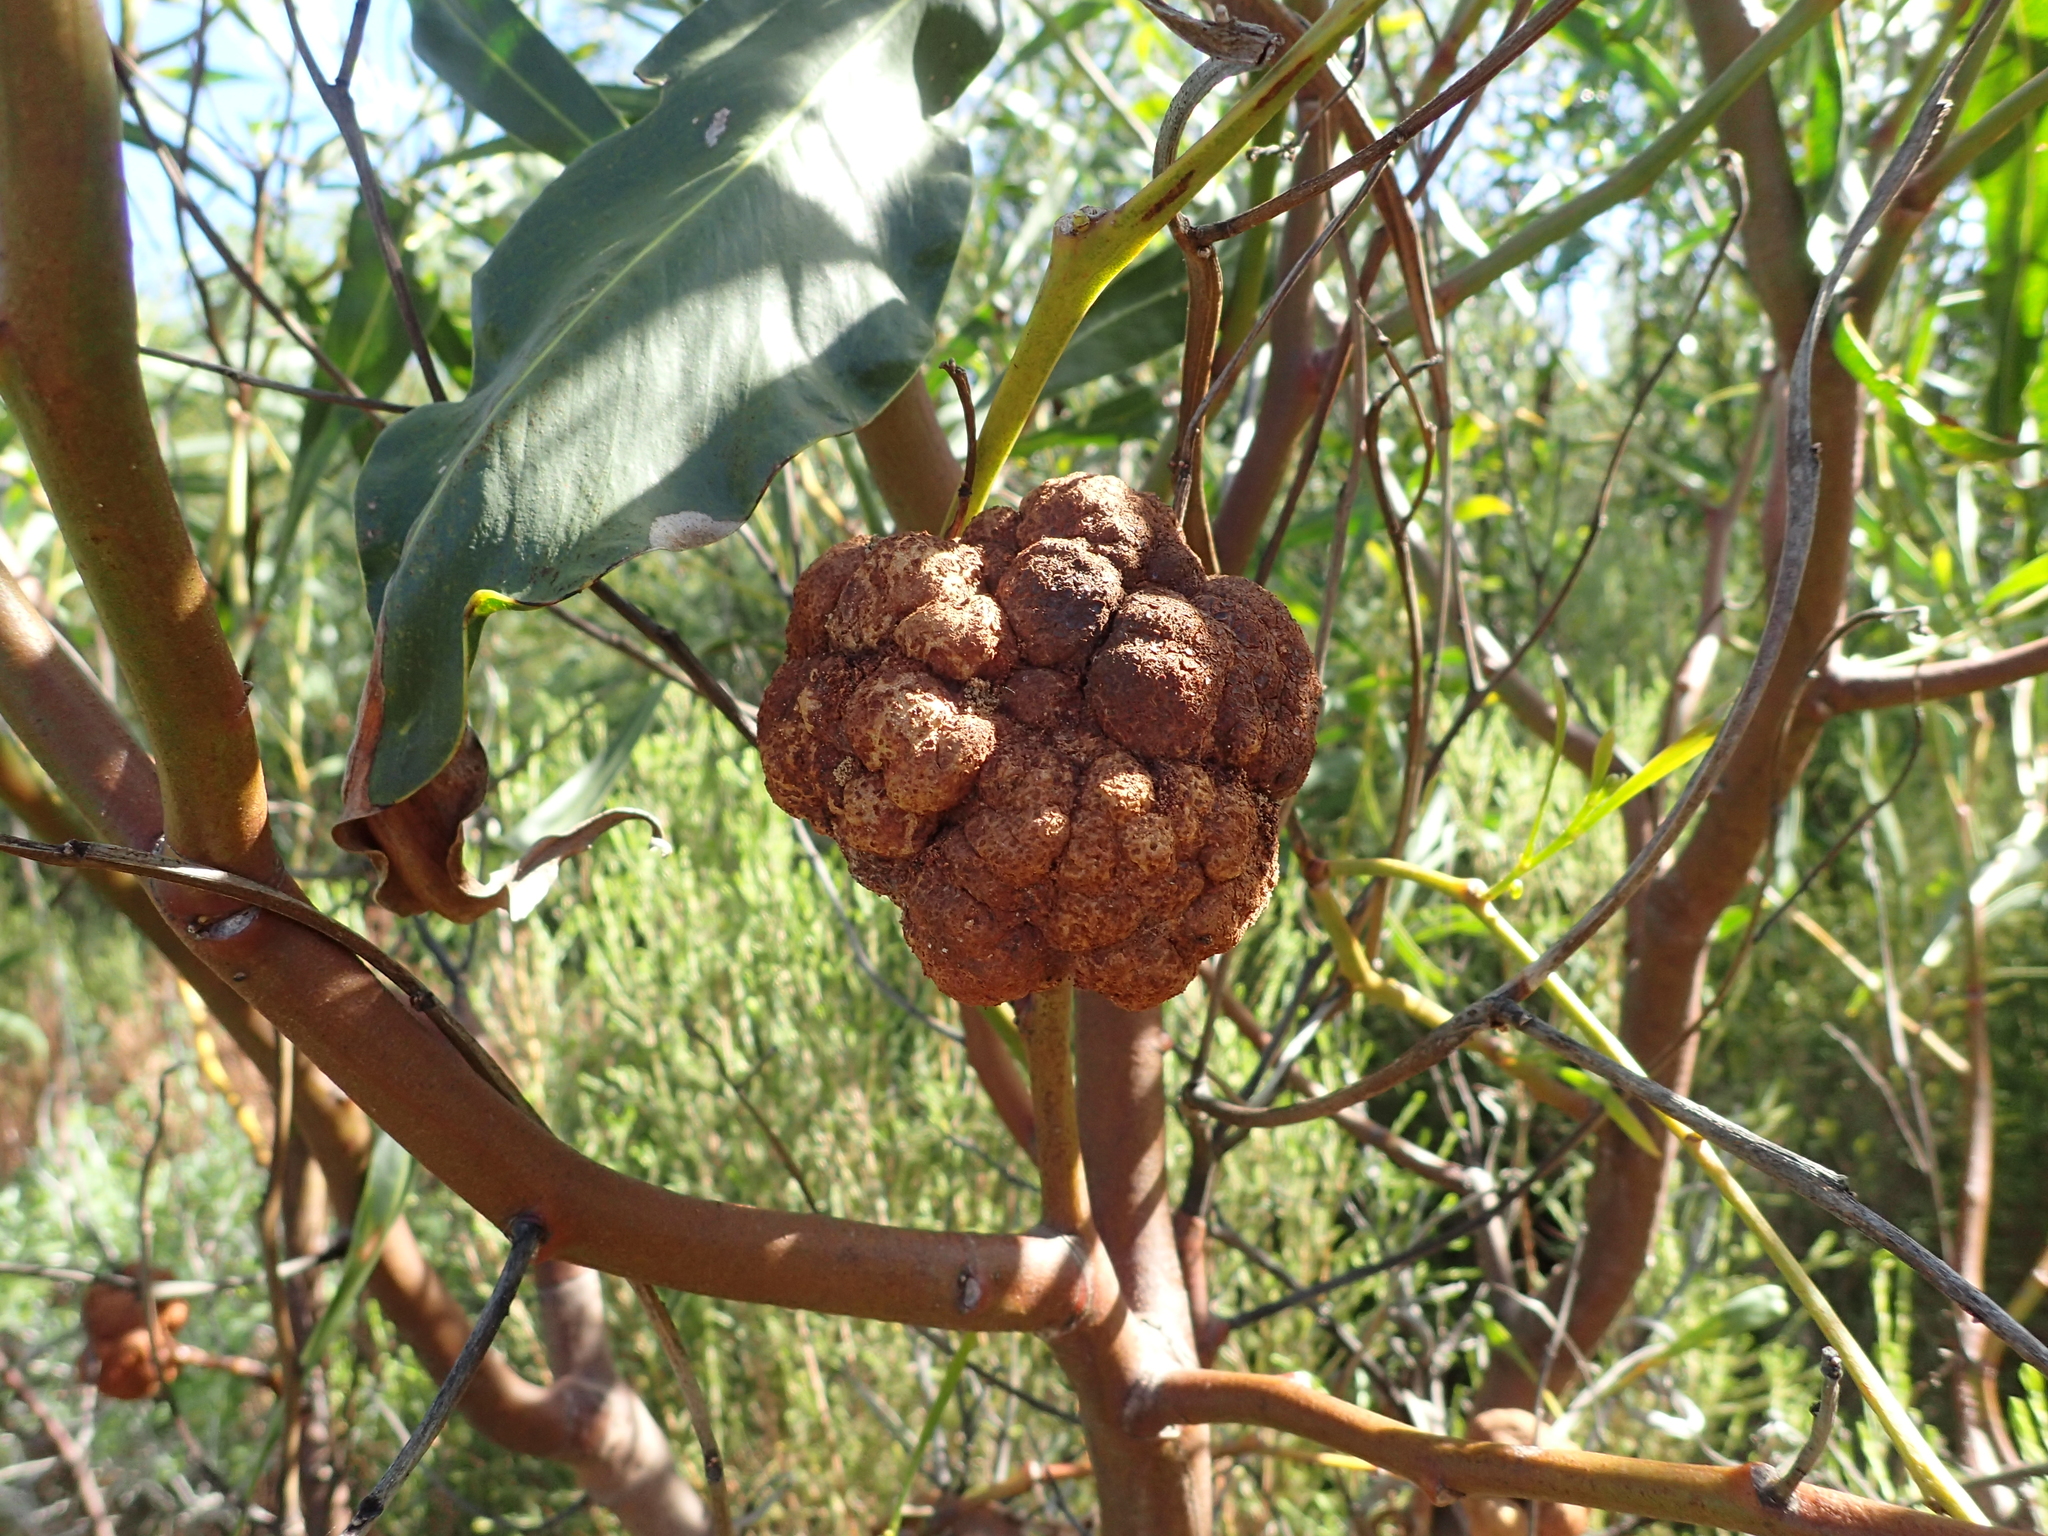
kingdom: Animalia
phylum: Arthropoda
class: Insecta
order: Hymenoptera
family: Pteromalidae
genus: Trichilogaster
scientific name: Trichilogaster acaciaelongifoliae
